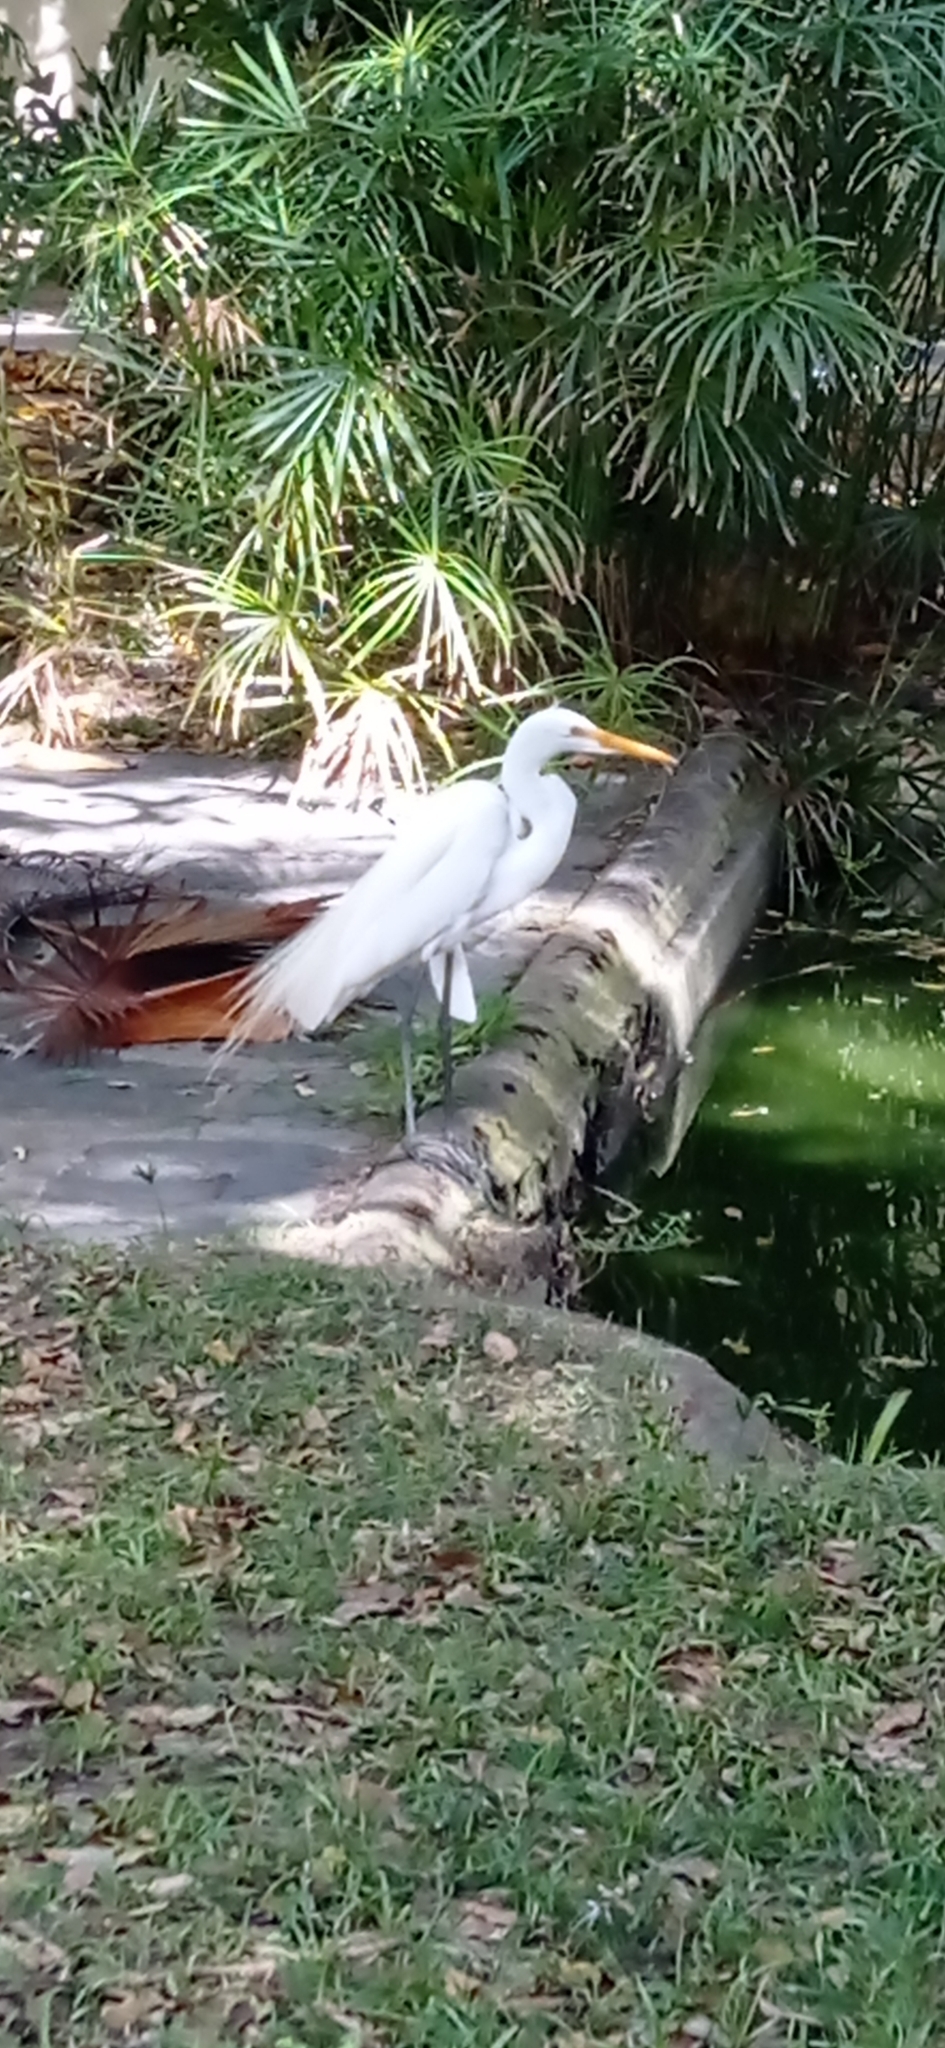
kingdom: Animalia
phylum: Chordata
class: Aves
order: Pelecaniformes
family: Ardeidae
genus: Ardea
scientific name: Ardea alba
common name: Great egret
